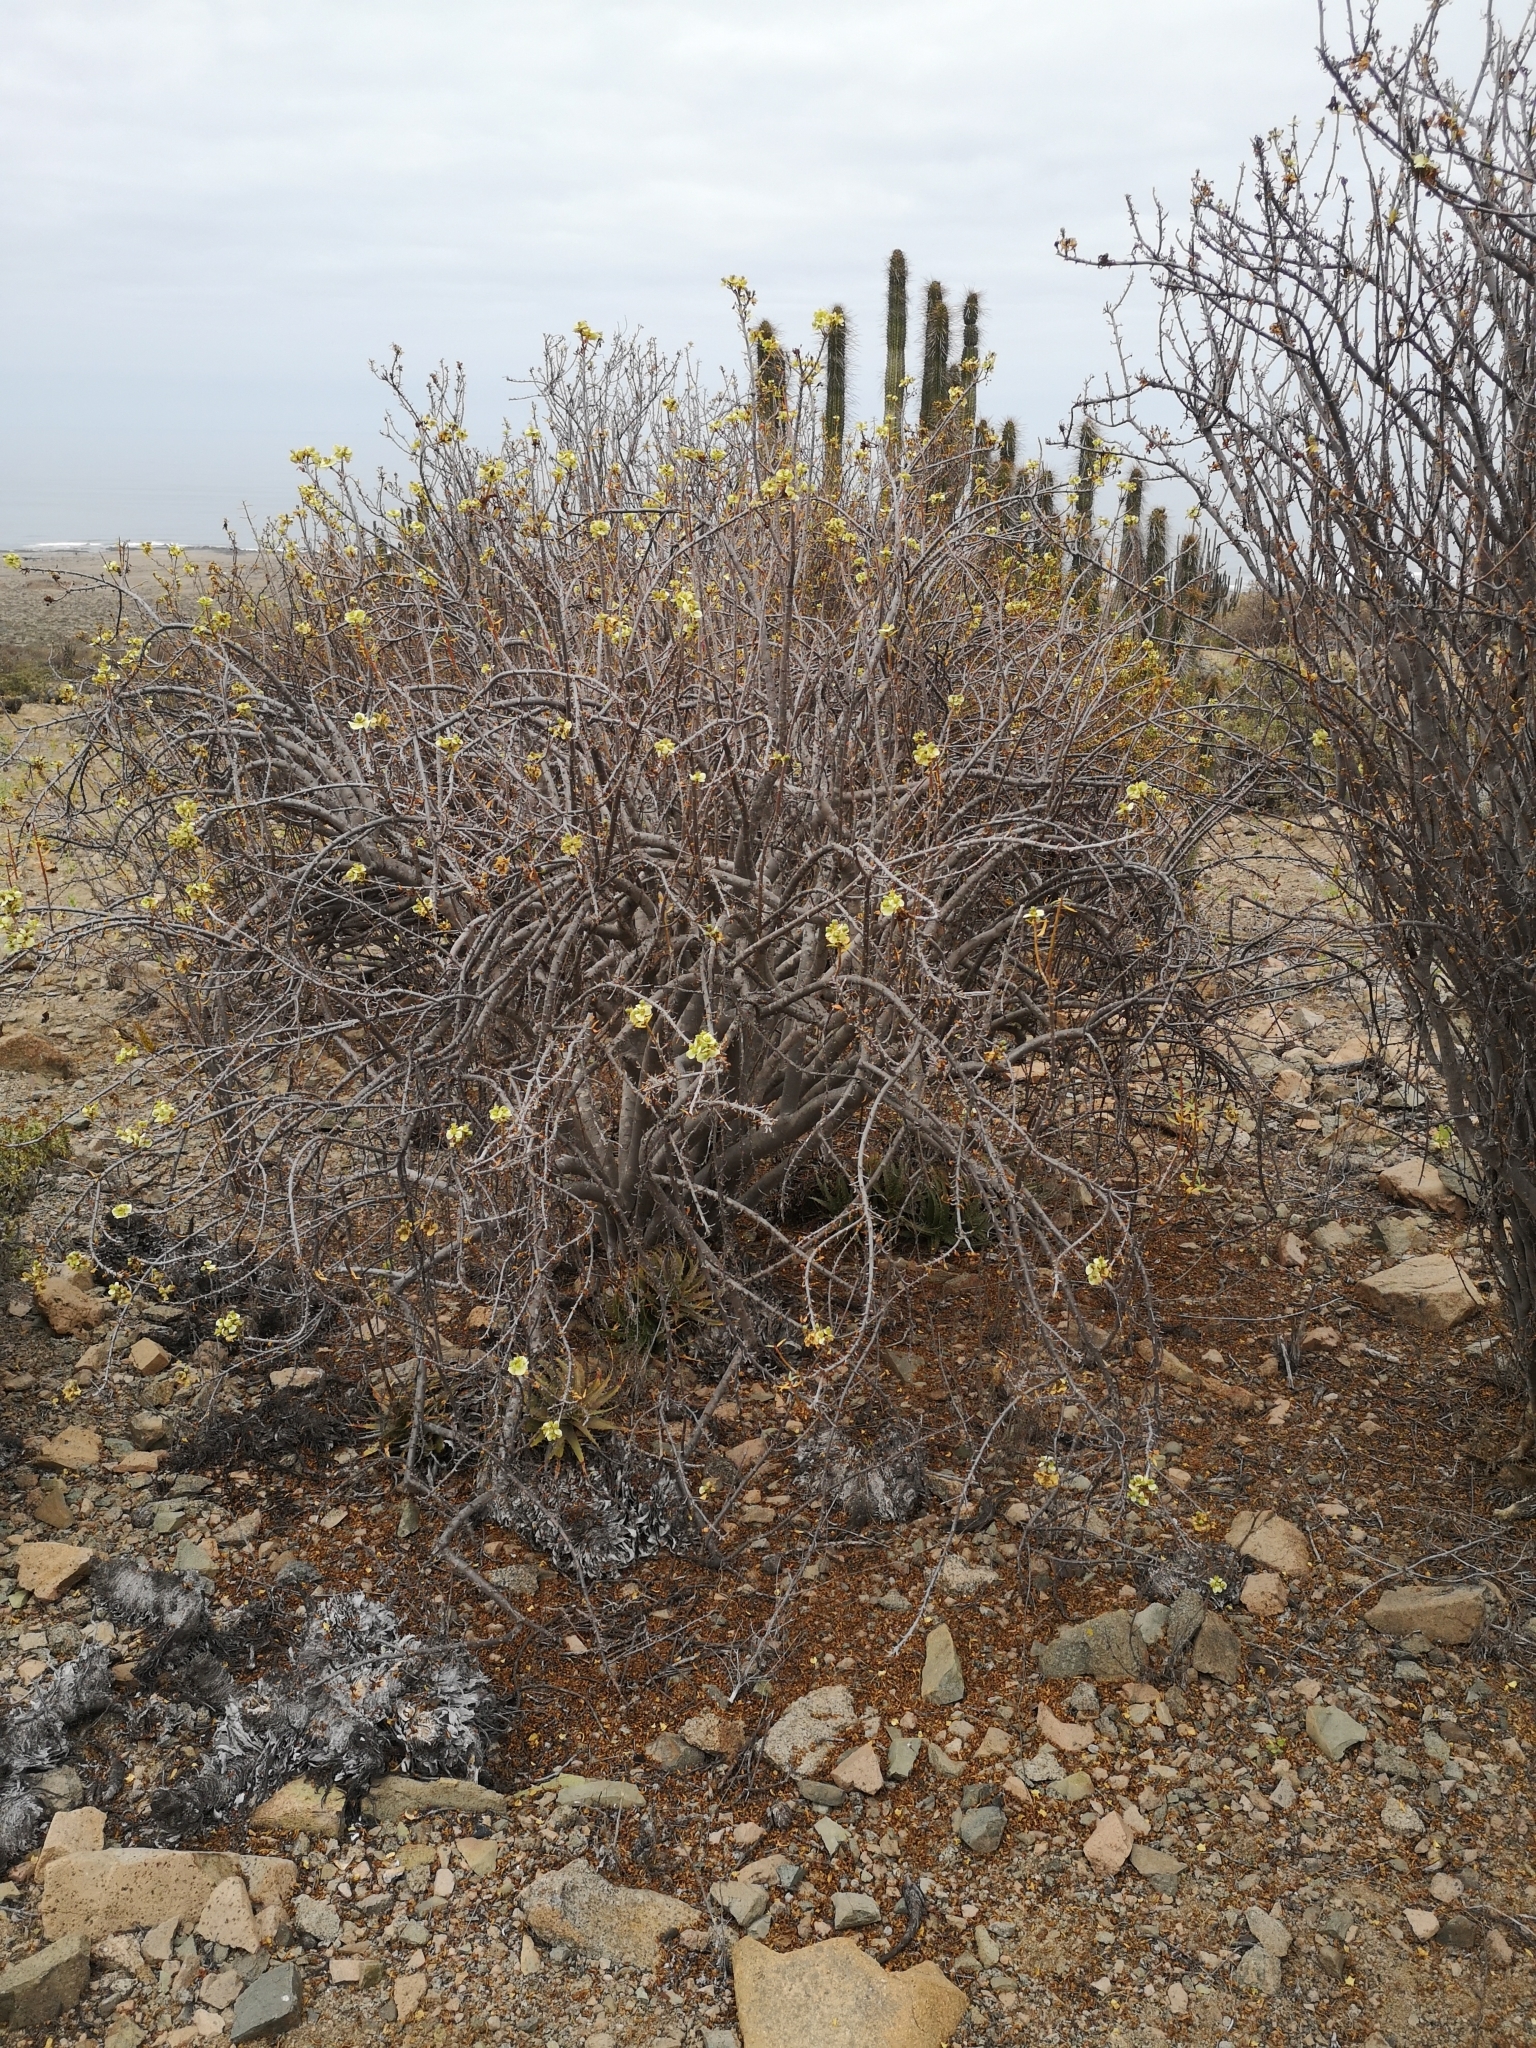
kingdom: Plantae
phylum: Tracheophyta
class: Magnoliopsida
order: Malpighiales
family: Euphorbiaceae
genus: Euphorbia
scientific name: Euphorbia lactiflua
